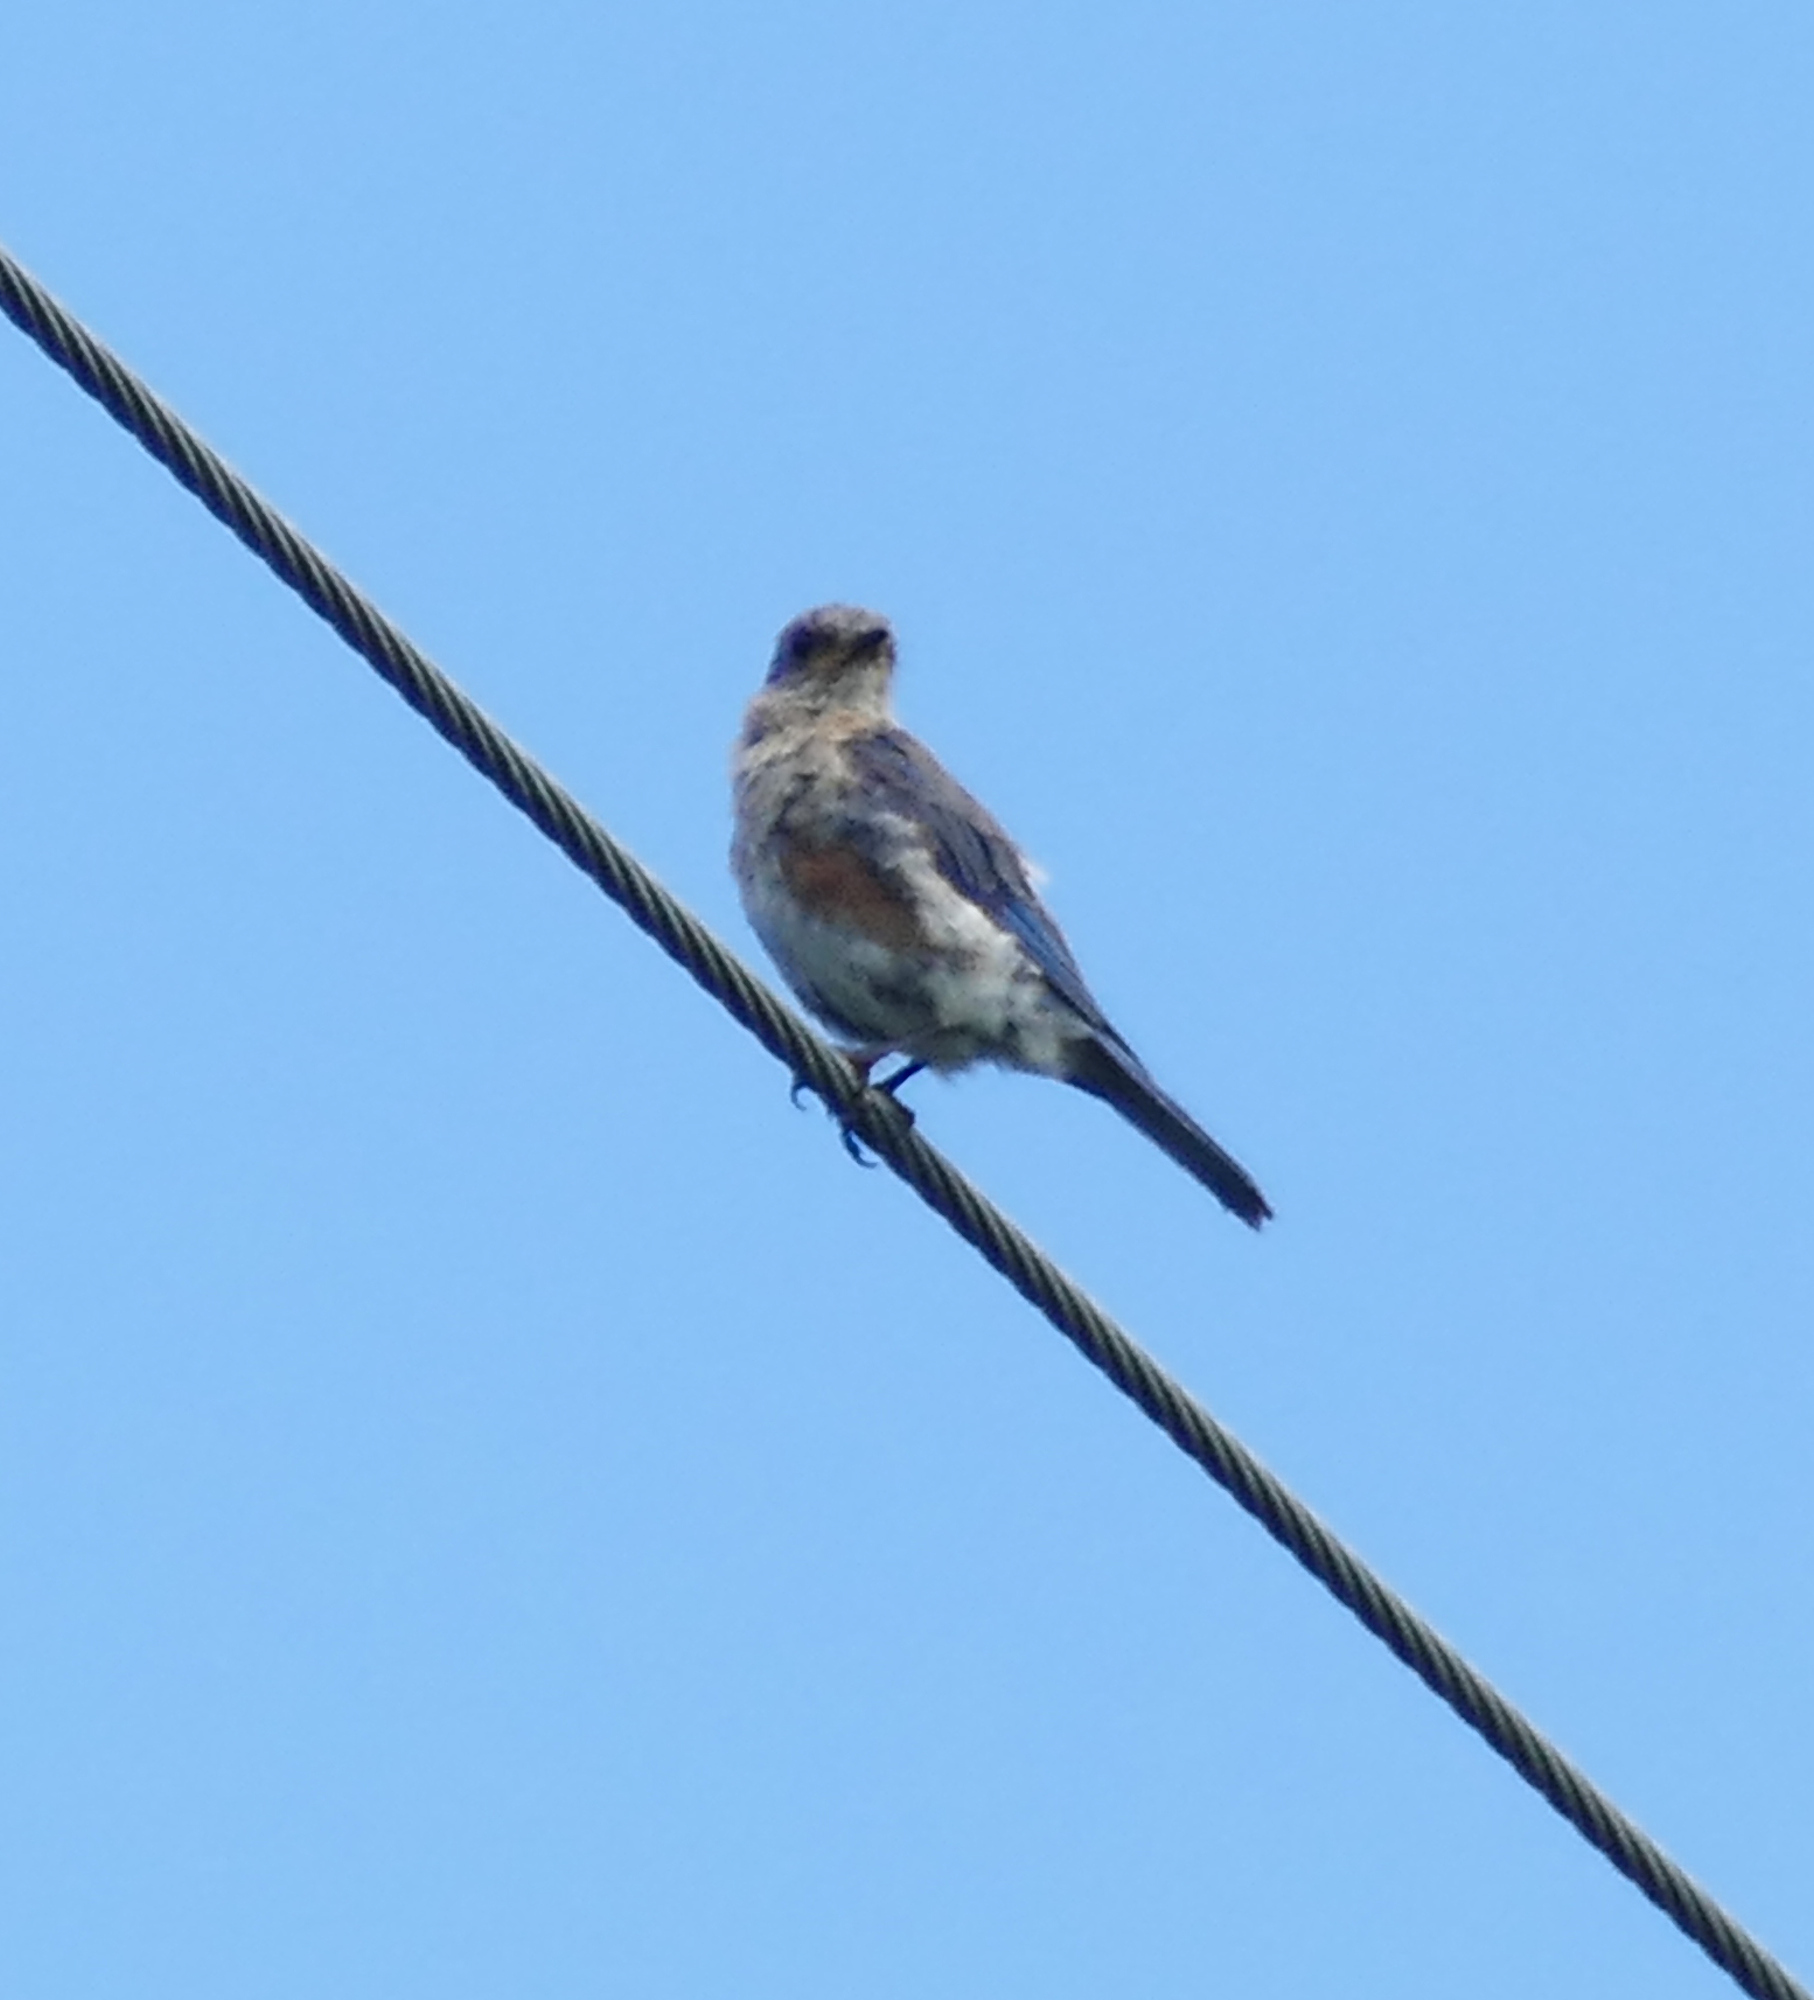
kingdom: Animalia
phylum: Chordata
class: Aves
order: Passeriformes
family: Turdidae
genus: Sialia
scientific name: Sialia sialis
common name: Eastern bluebird
